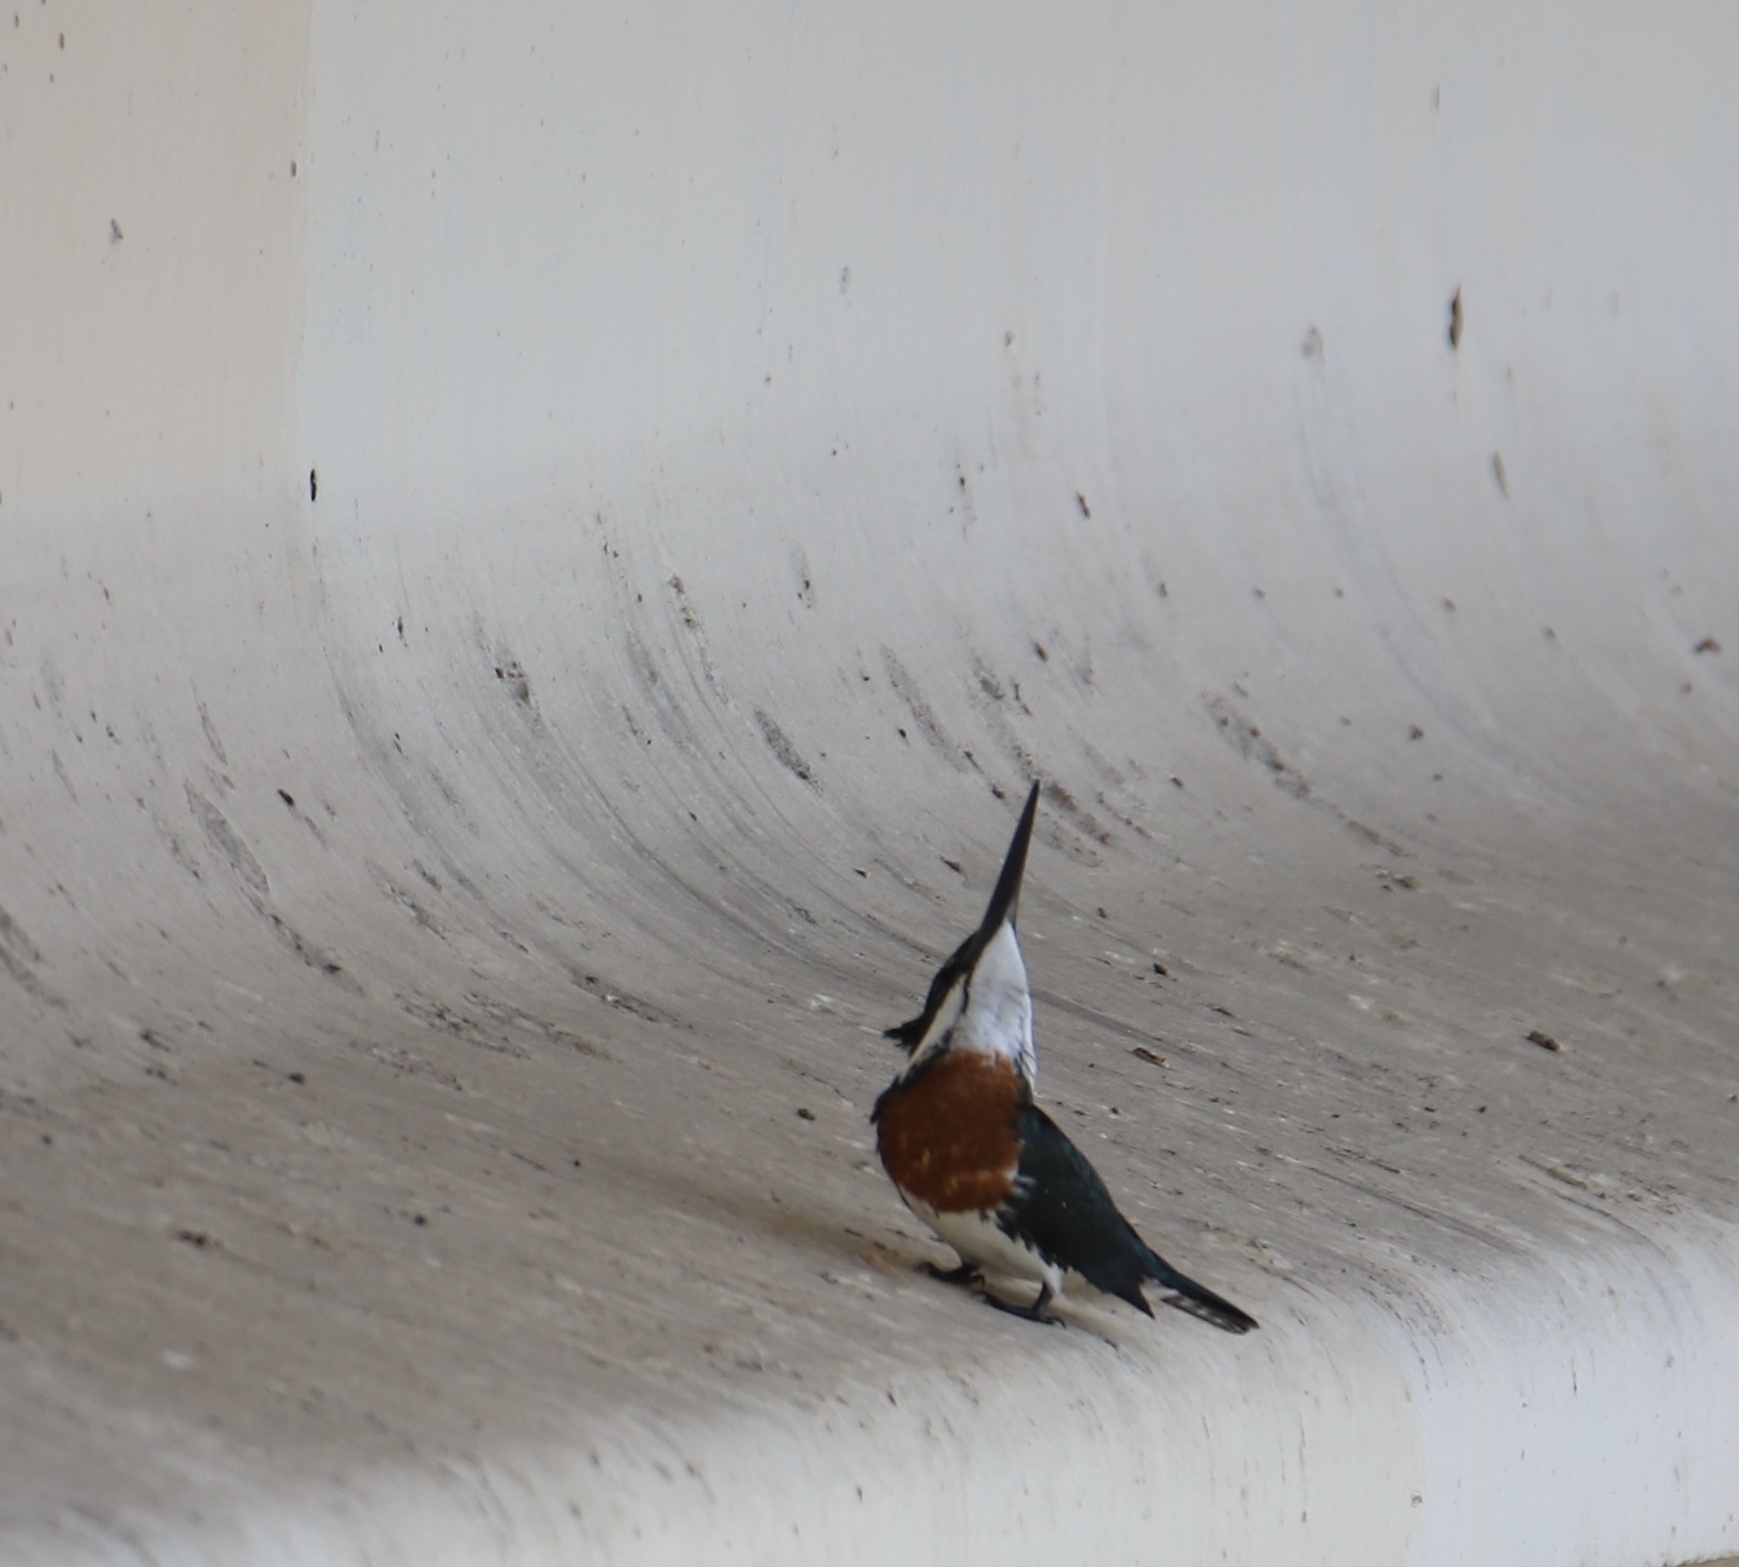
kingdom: Animalia
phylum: Chordata
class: Aves
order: Coraciiformes
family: Alcedinidae
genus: Chloroceryle
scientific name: Chloroceryle amazona
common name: Amazon kingfisher
